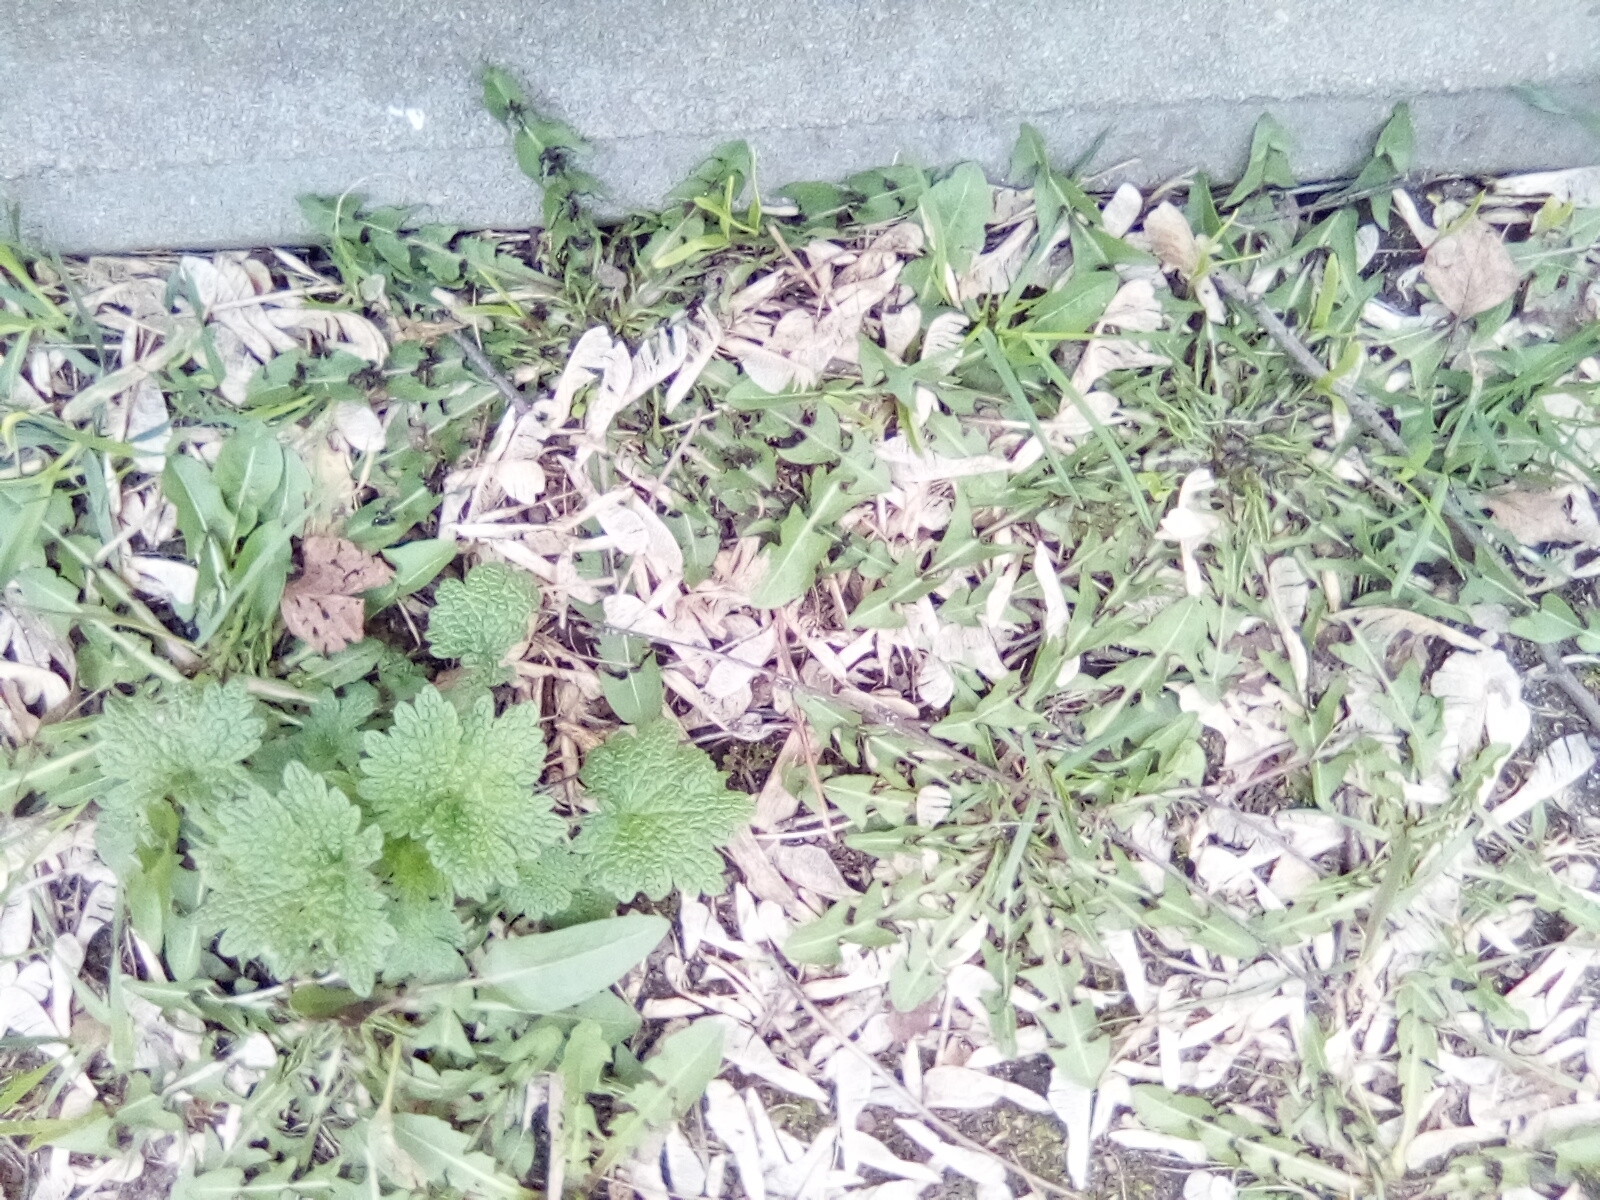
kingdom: Plantae
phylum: Tracheophyta
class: Magnoliopsida
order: Asterales
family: Asteraceae
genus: Taraxacum
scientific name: Taraxacum officinale
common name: Common dandelion
